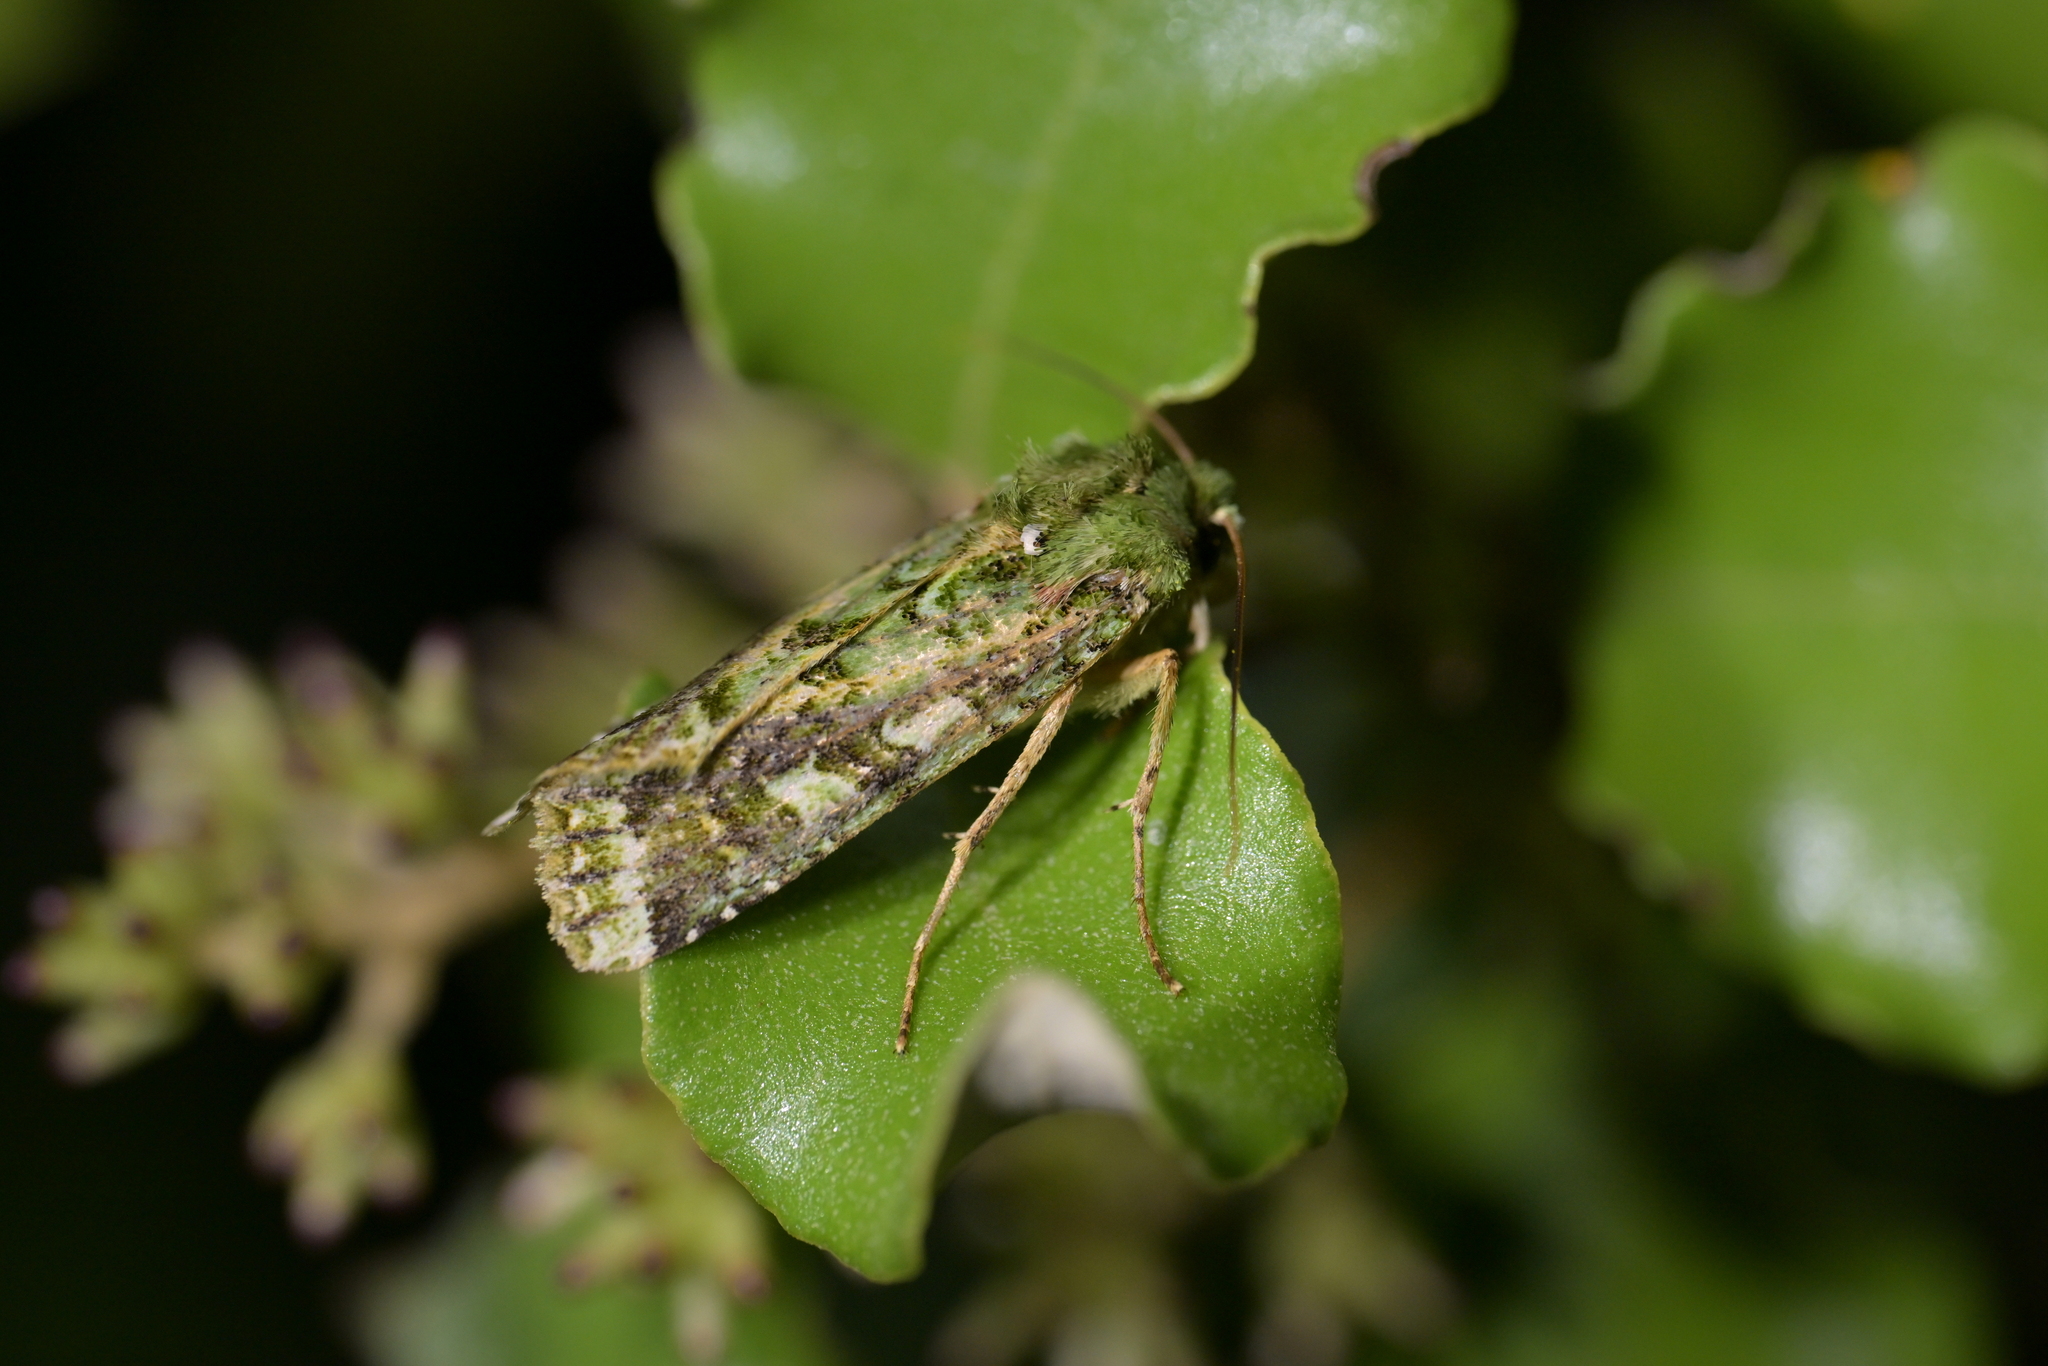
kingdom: Animalia
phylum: Arthropoda
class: Insecta
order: Lepidoptera
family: Noctuidae
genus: Feredayia
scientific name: Feredayia grammosa
